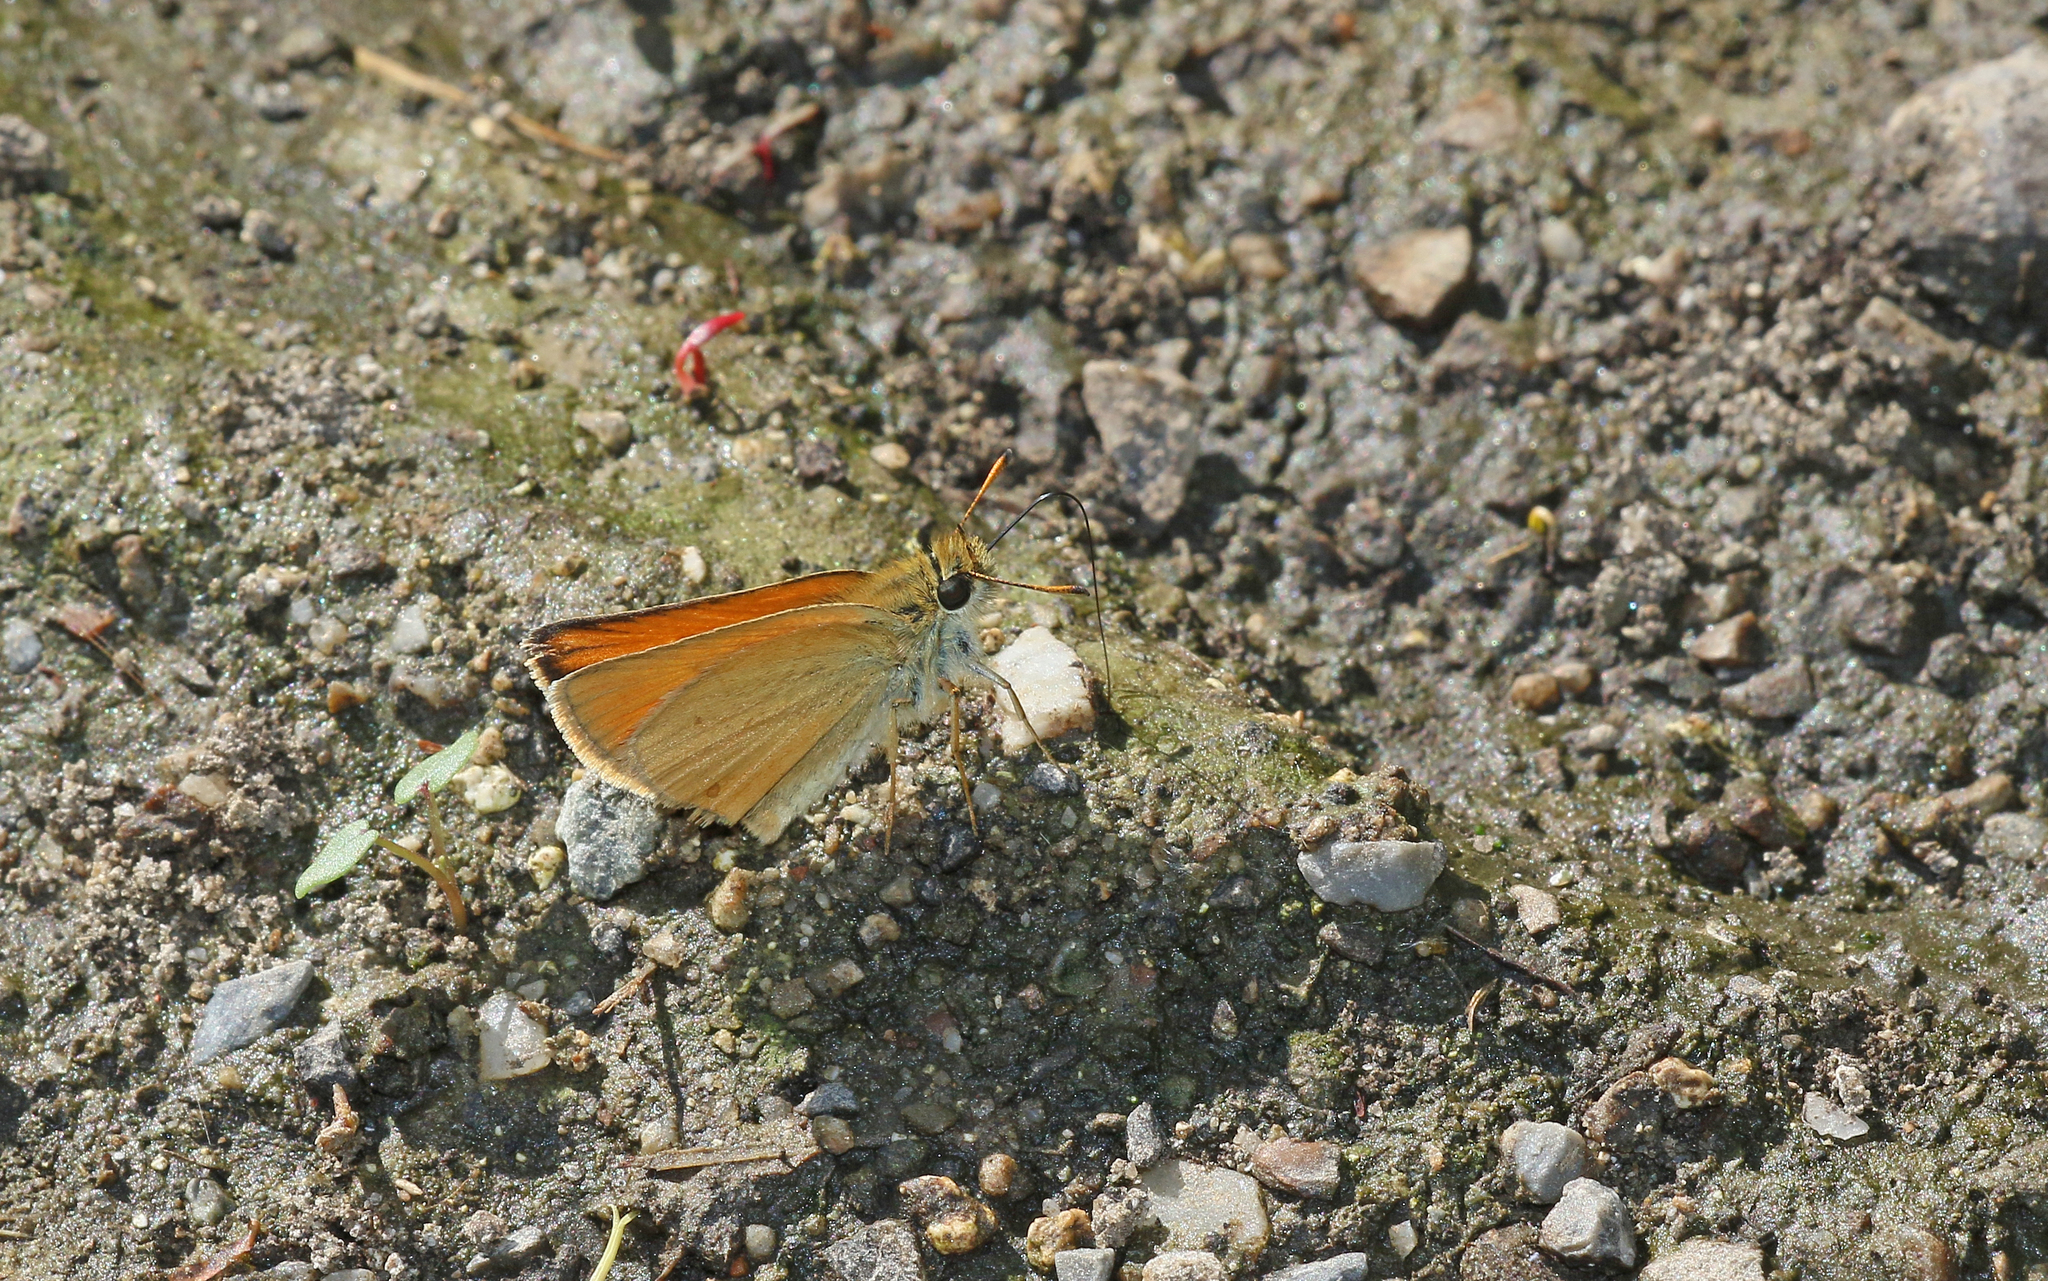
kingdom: Animalia
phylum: Arthropoda
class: Insecta
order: Lepidoptera
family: Hesperiidae
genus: Thymelicus
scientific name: Thymelicus lineola
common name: Essex skipper
